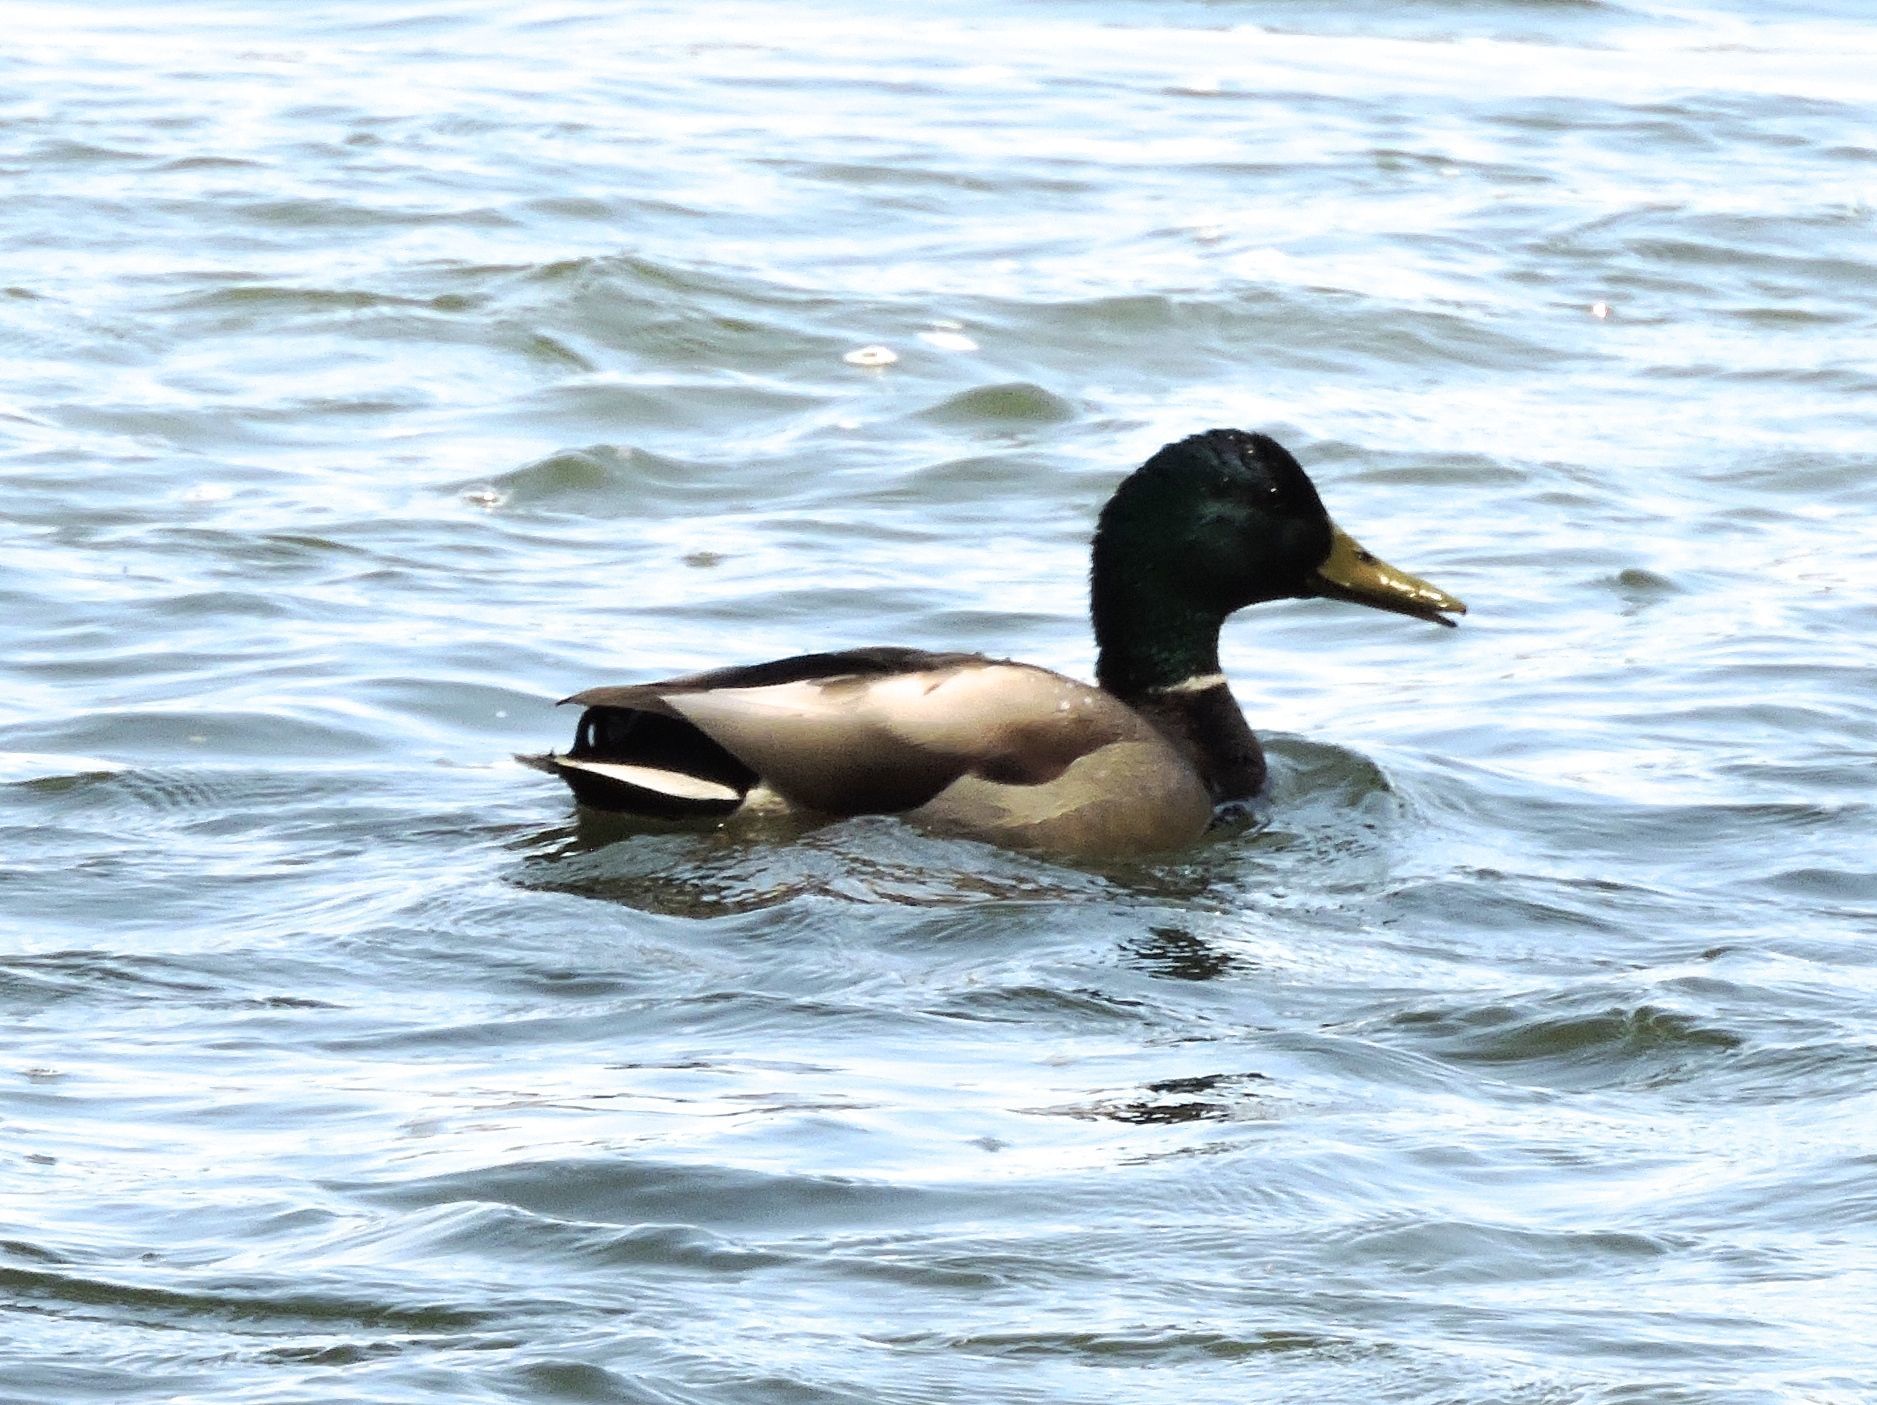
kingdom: Animalia
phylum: Chordata
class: Aves
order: Anseriformes
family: Anatidae
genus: Anas
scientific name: Anas platyrhynchos
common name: Mallard
